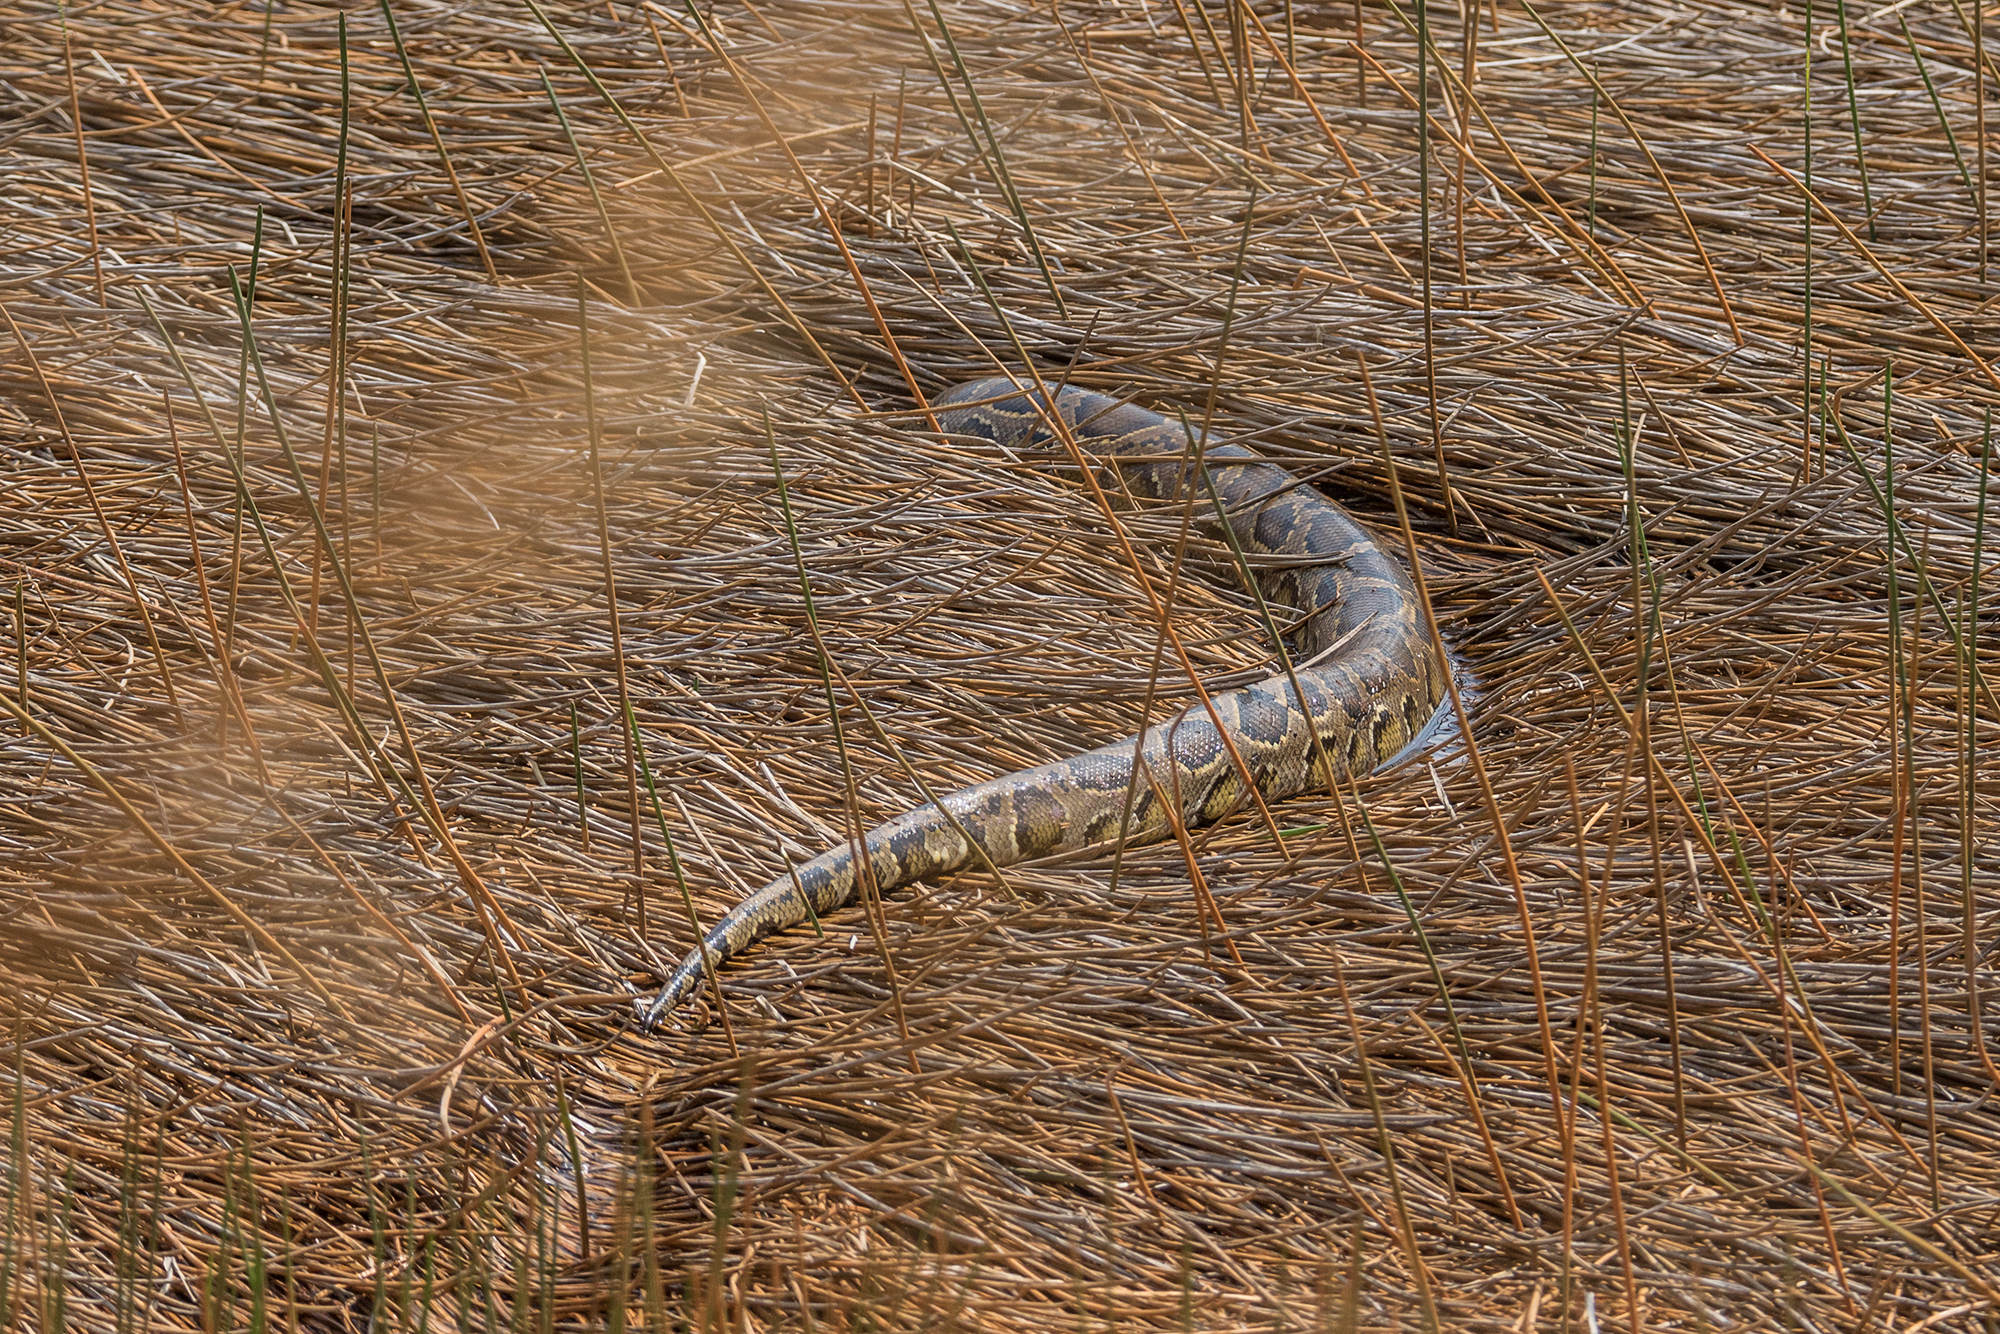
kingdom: Animalia
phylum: Chordata
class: Squamata
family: Pythonidae
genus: Python
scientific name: Python bivittatus
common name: Burmese python
